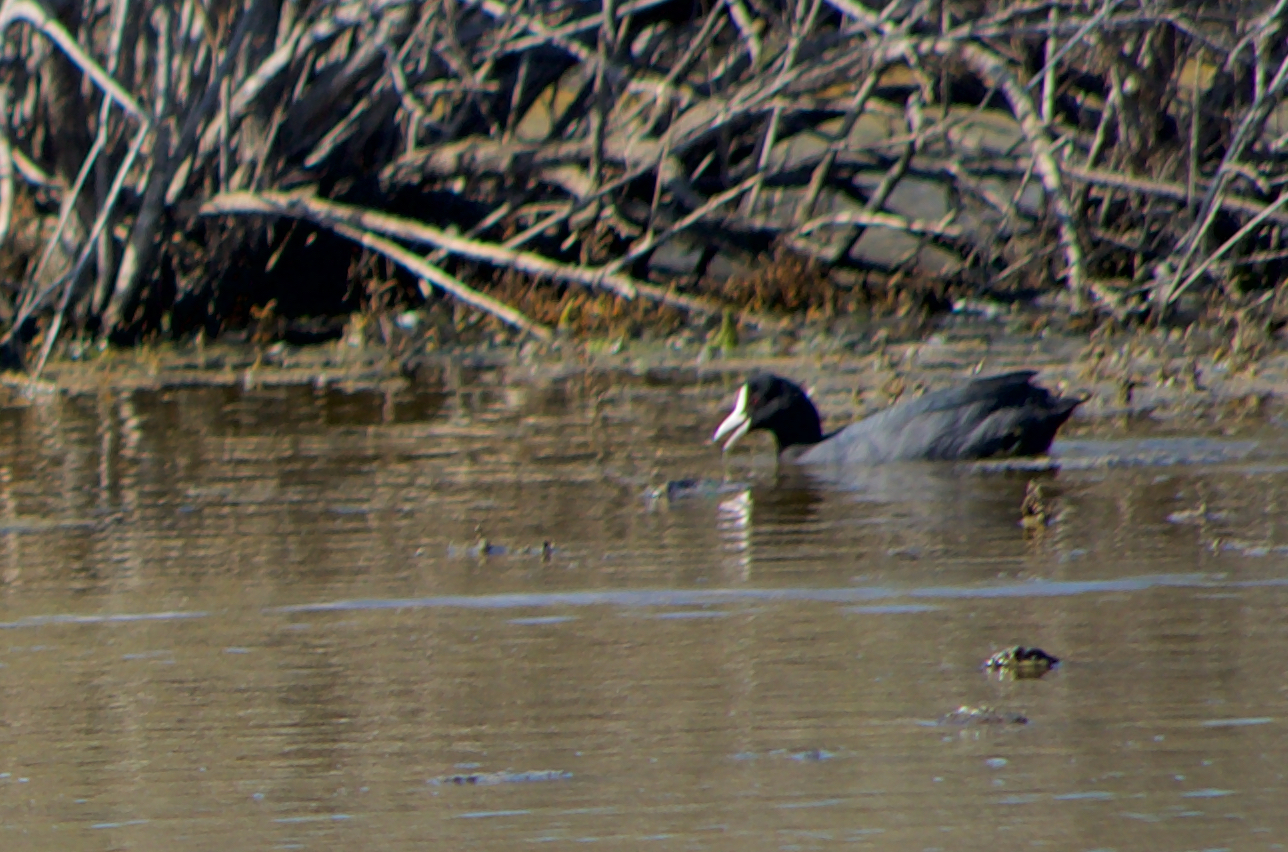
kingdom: Animalia
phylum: Chordata
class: Aves
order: Gruiformes
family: Rallidae
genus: Fulica
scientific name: Fulica atra
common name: Eurasian coot
